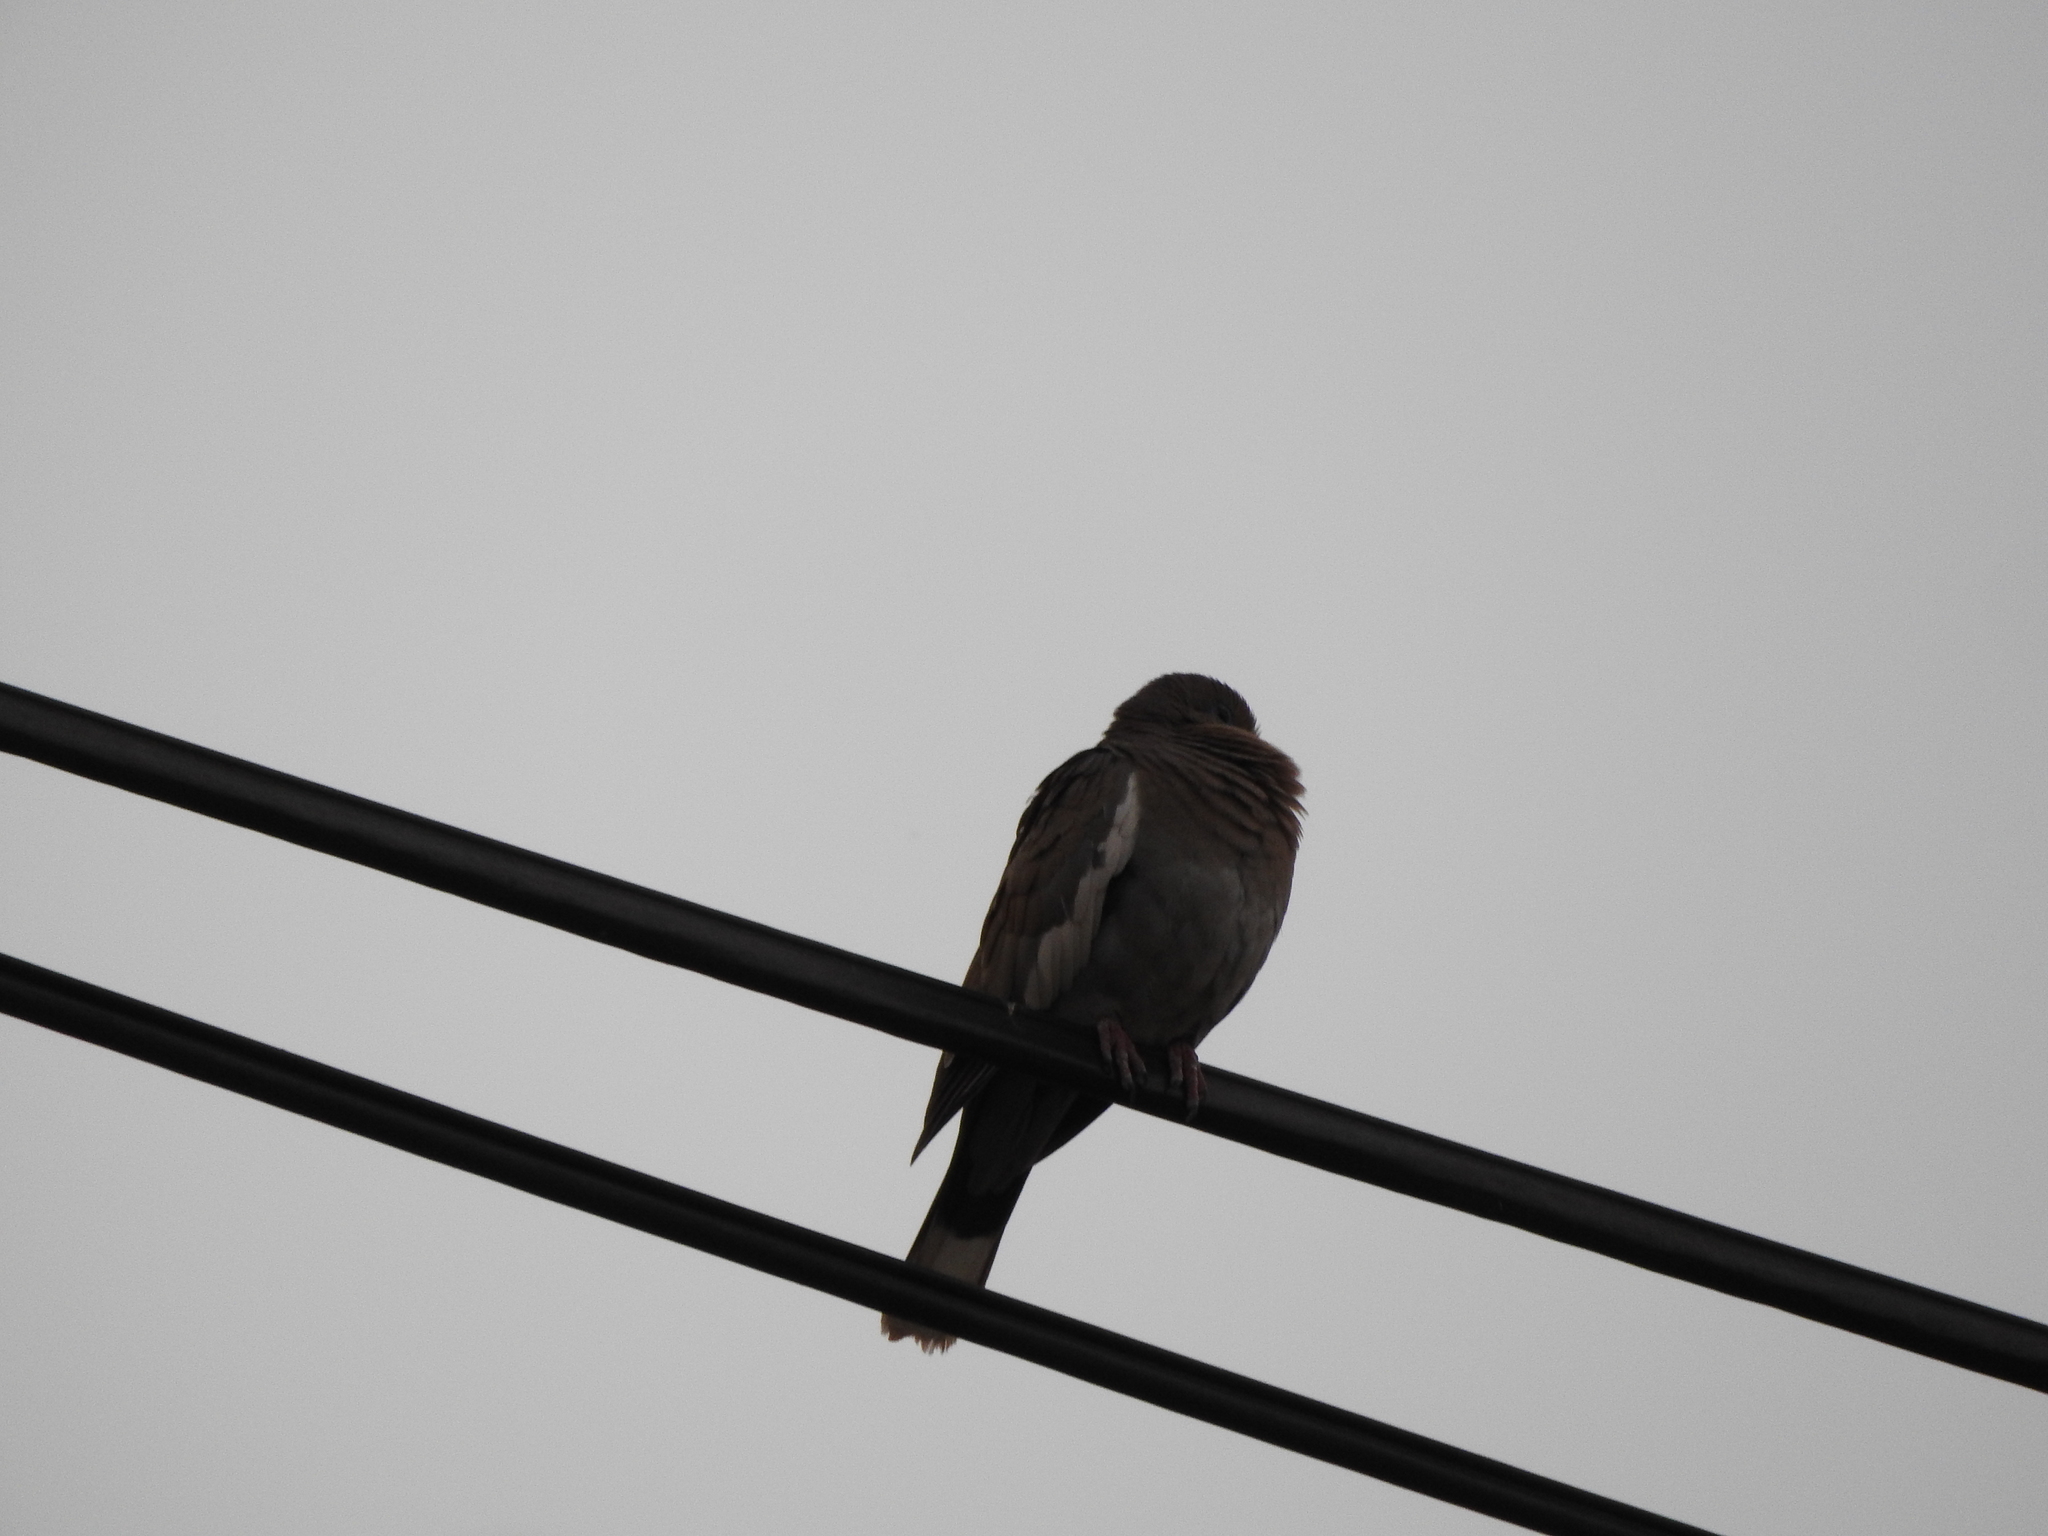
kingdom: Animalia
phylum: Chordata
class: Aves
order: Columbiformes
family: Columbidae
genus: Zenaida
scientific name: Zenaida asiatica
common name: White-winged dove
